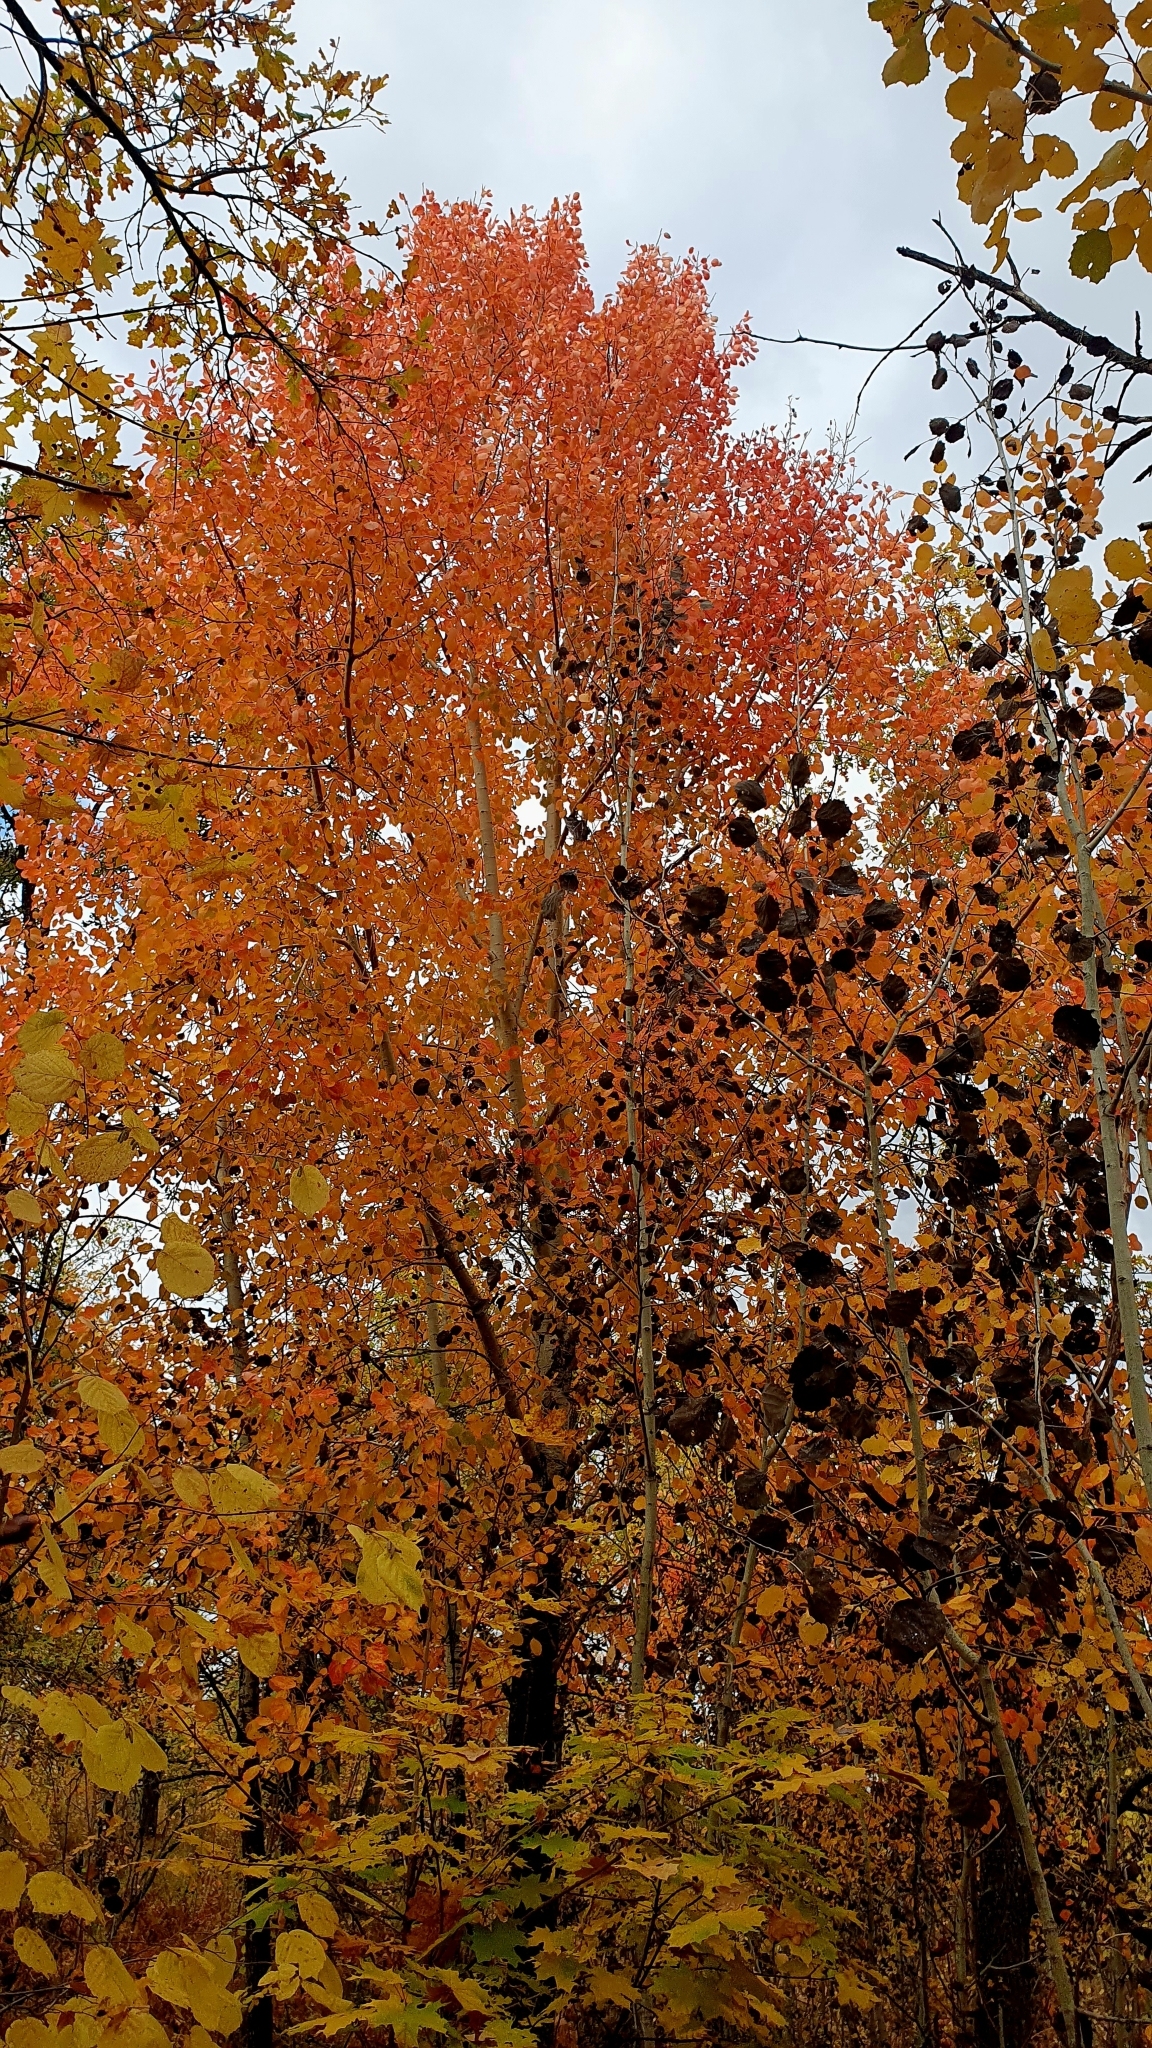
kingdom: Plantae
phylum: Tracheophyta
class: Magnoliopsida
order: Malpighiales
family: Salicaceae
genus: Populus
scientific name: Populus tremula
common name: European aspen
